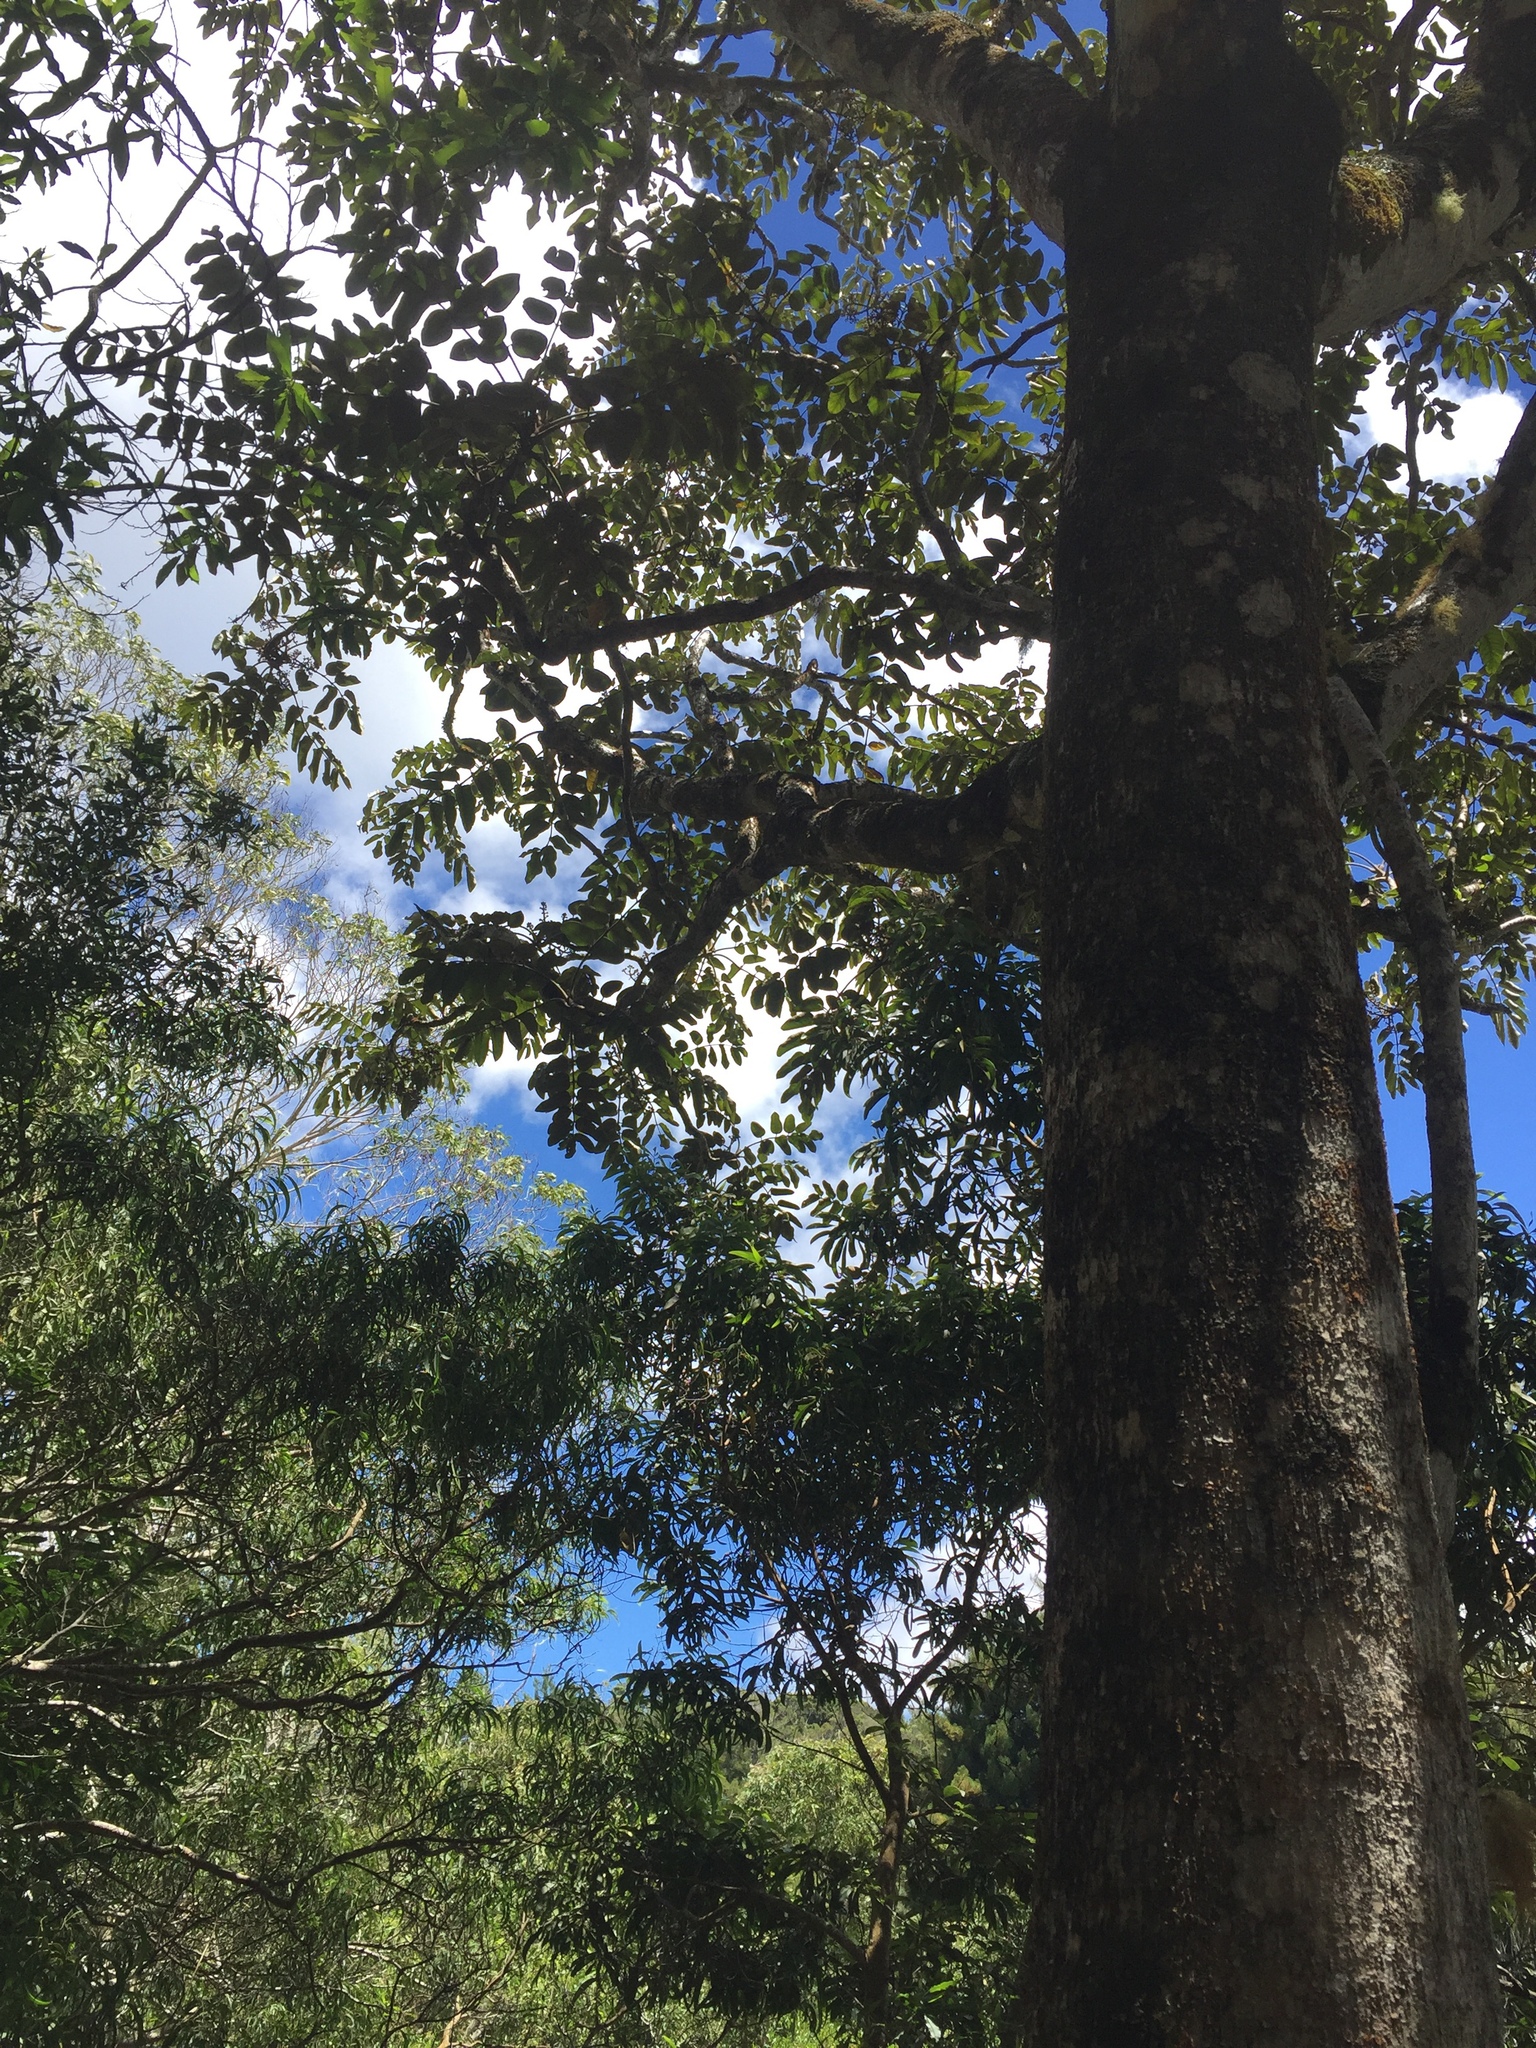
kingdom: Plantae
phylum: Tracheophyta
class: Magnoliopsida
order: Apiales
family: Araliaceae
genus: Polyscias
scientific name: Polyscias sandwicensis
